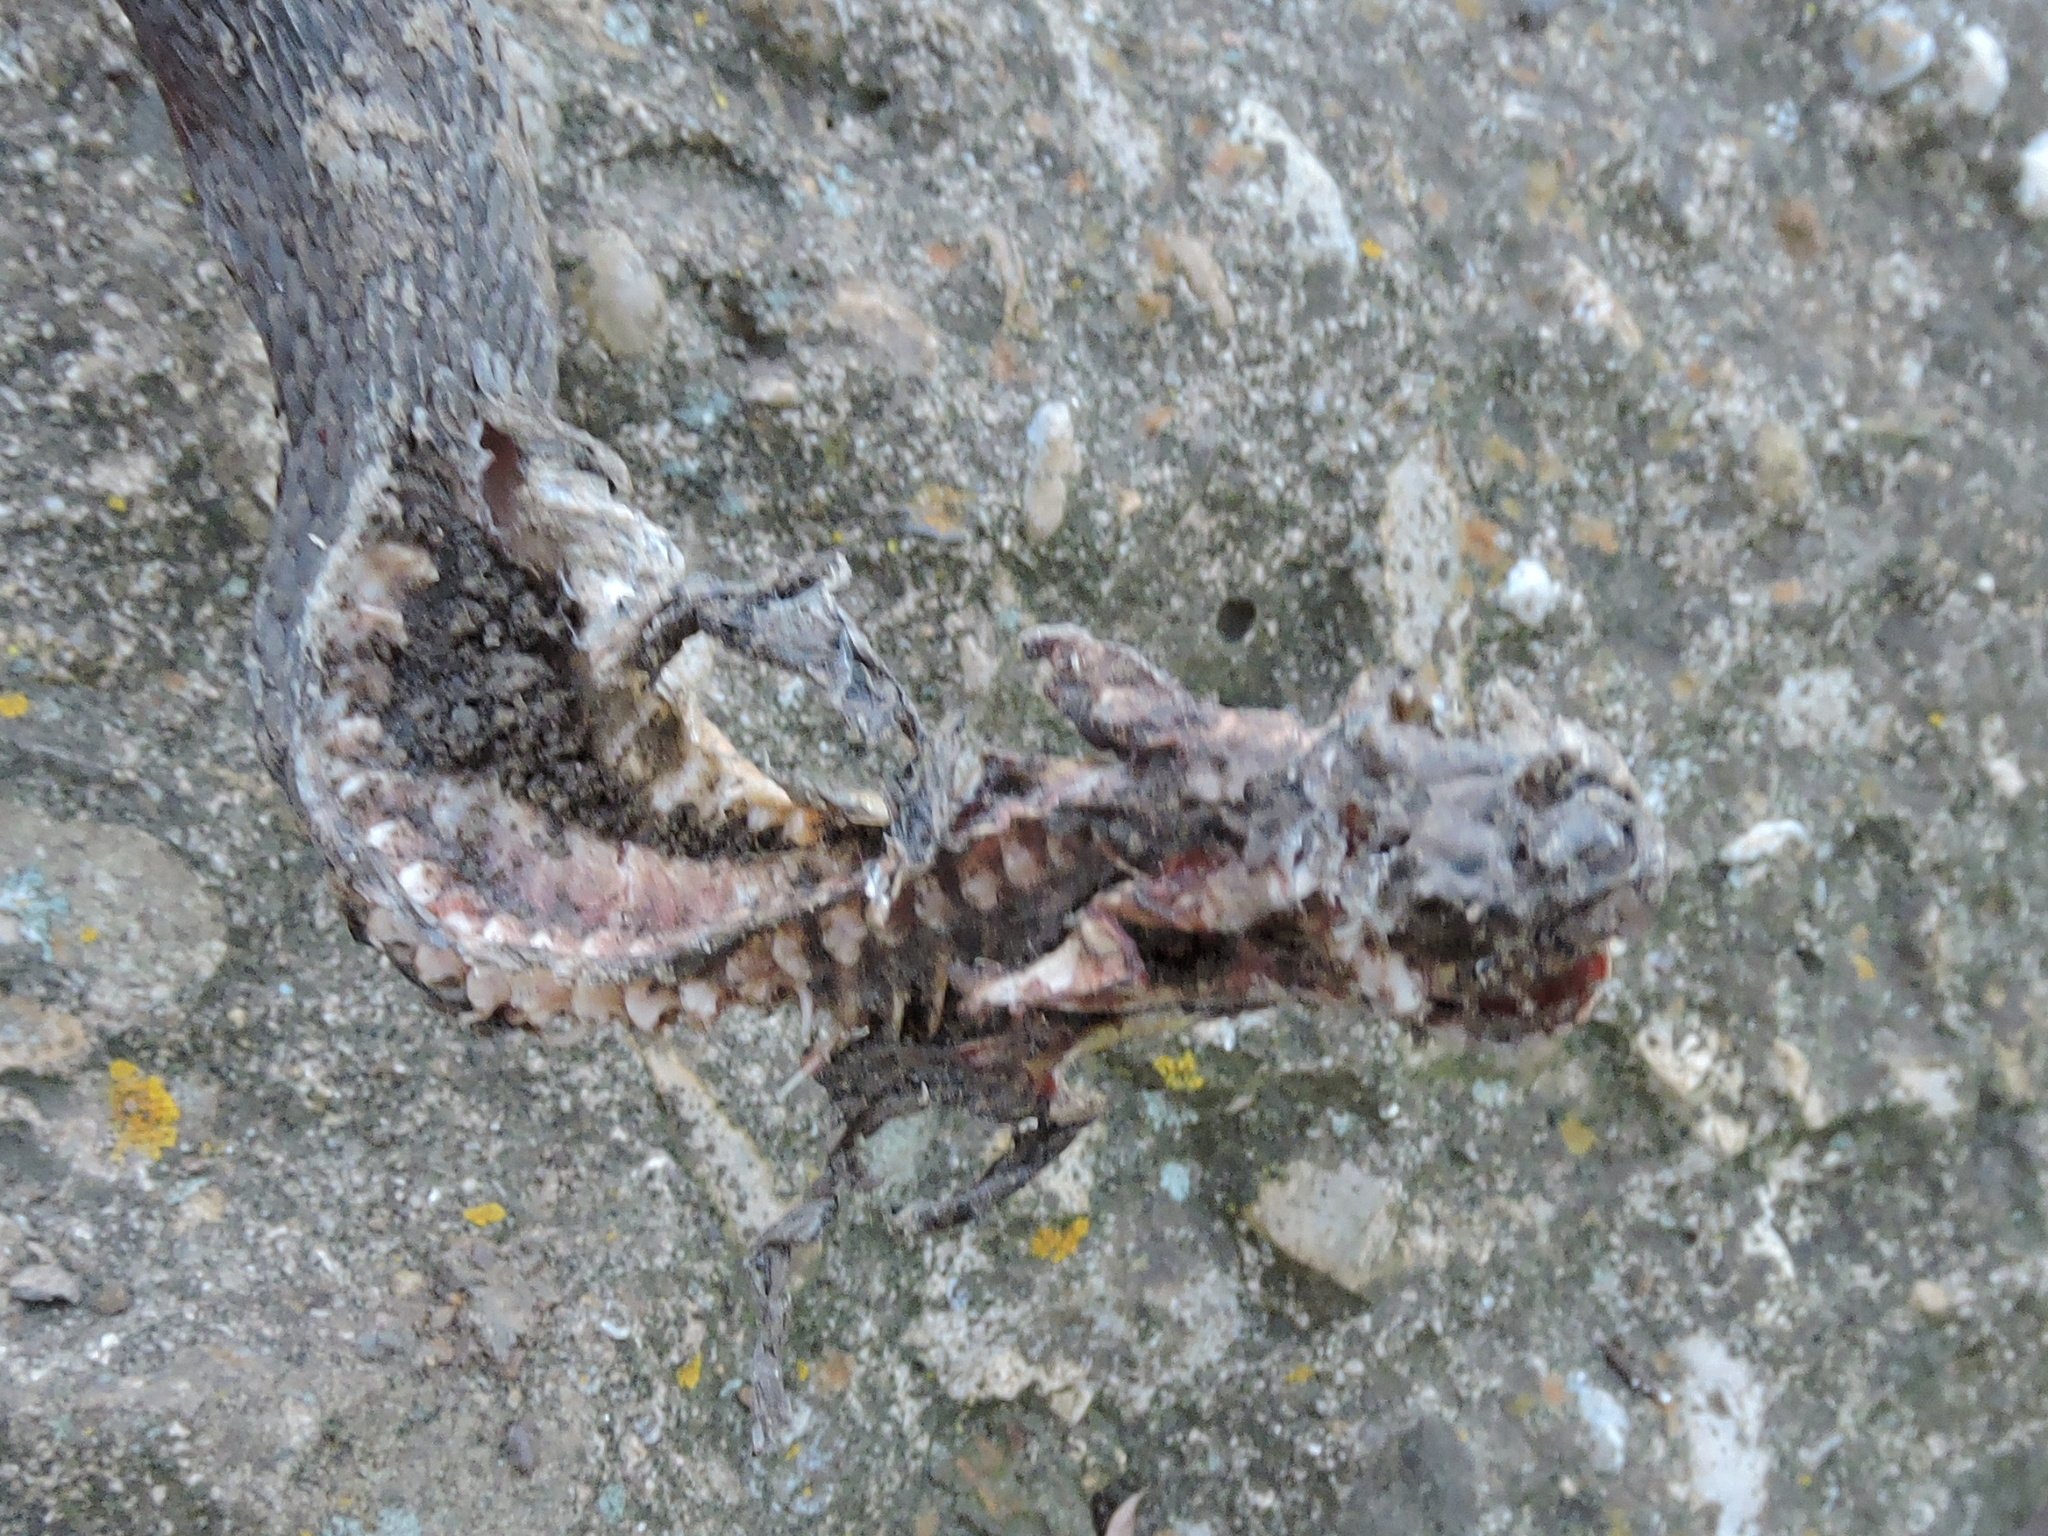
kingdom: Animalia
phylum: Chordata
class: Squamata
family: Colubridae
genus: Nerodia
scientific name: Nerodia erythrogaster
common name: Plainbelly water snake
